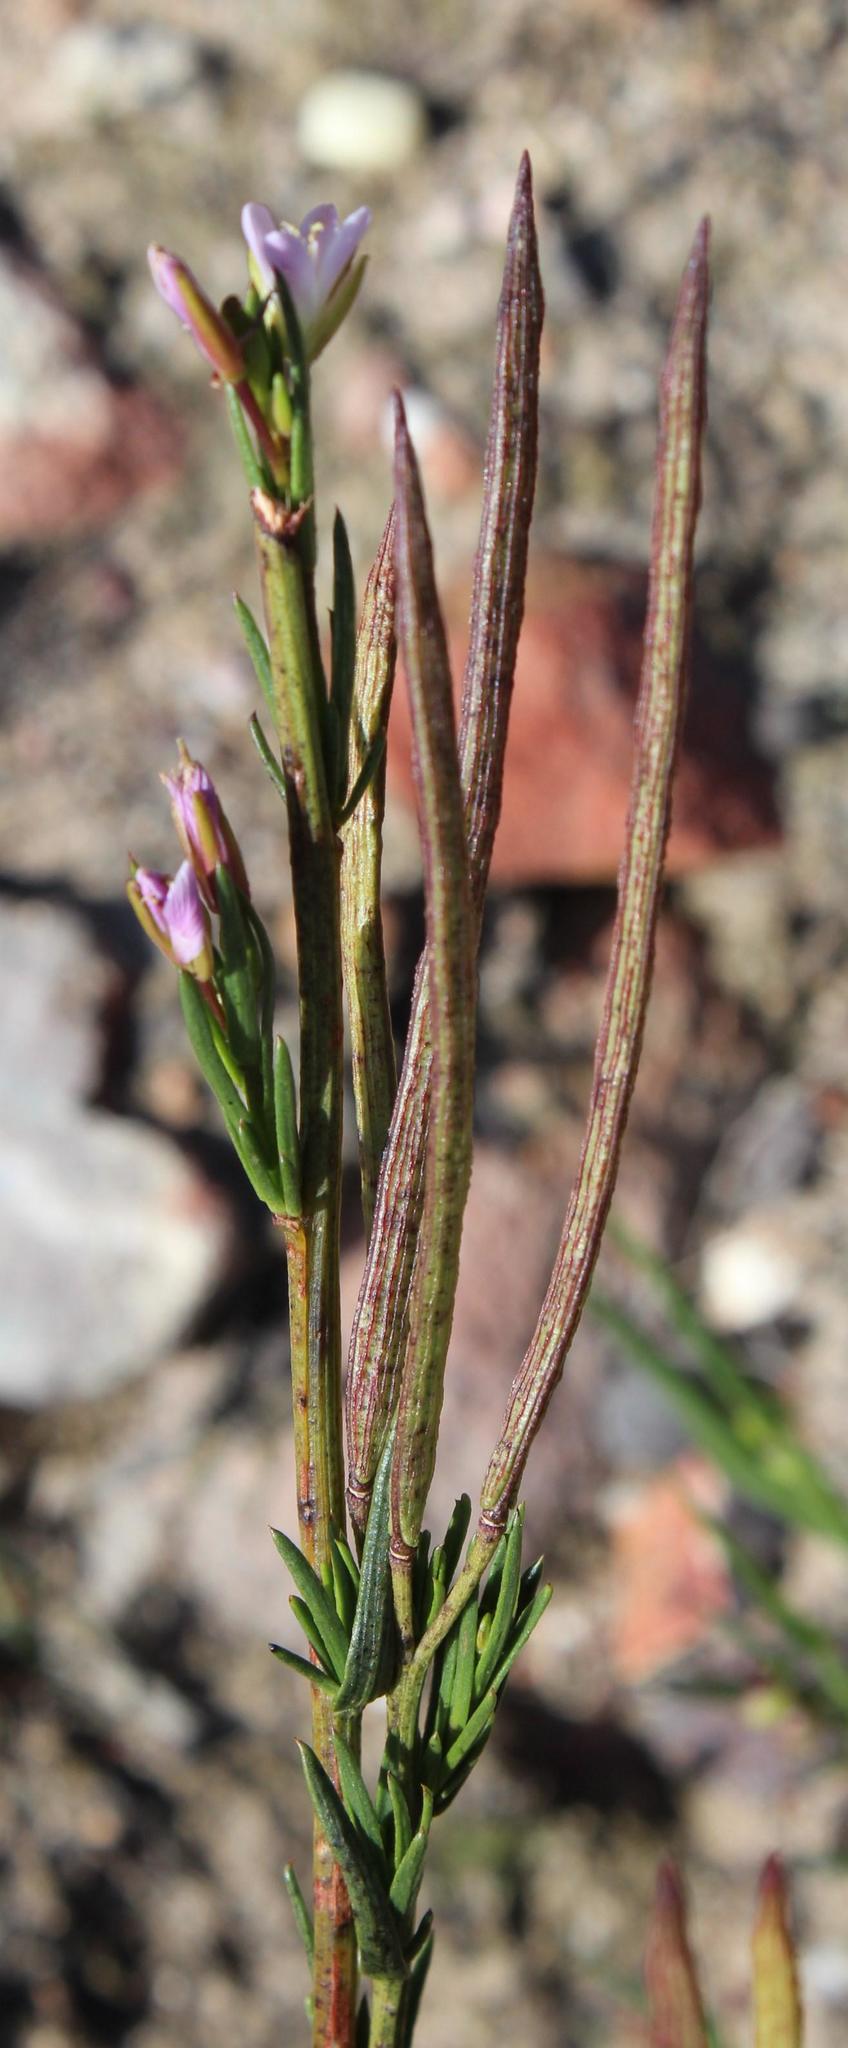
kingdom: Plantae
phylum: Tracheophyta
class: Magnoliopsida
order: Brassicales
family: Brassicaceae
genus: Heliophila
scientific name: Heliophila scoparia
